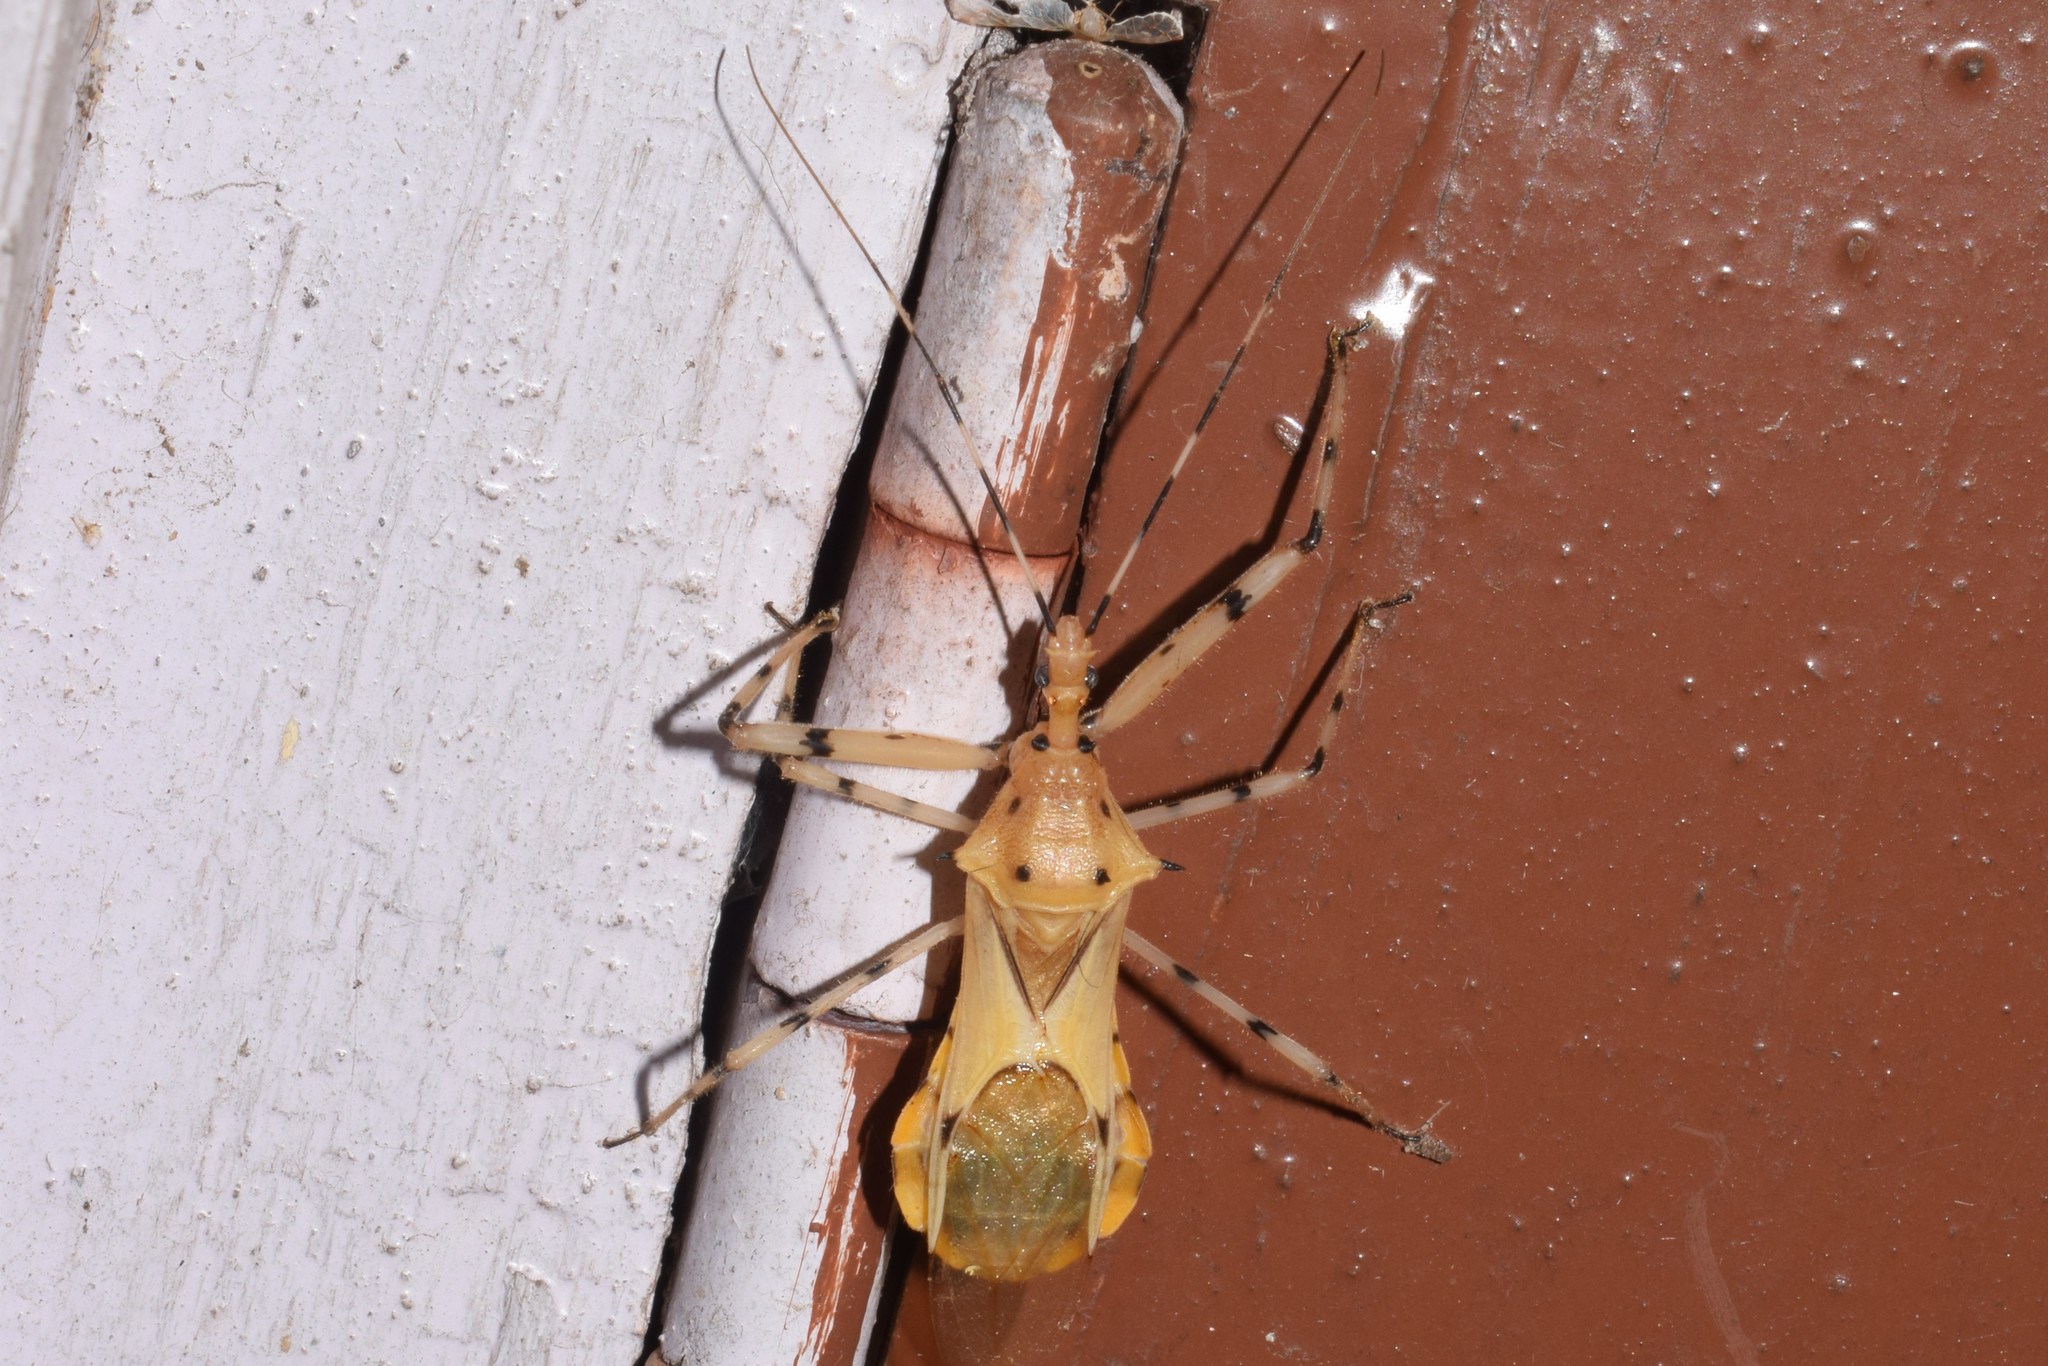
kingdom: Animalia
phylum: Arthropoda
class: Insecta
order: Hemiptera
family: Reduviidae
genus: Epidaus
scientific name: Epidaus wangi
